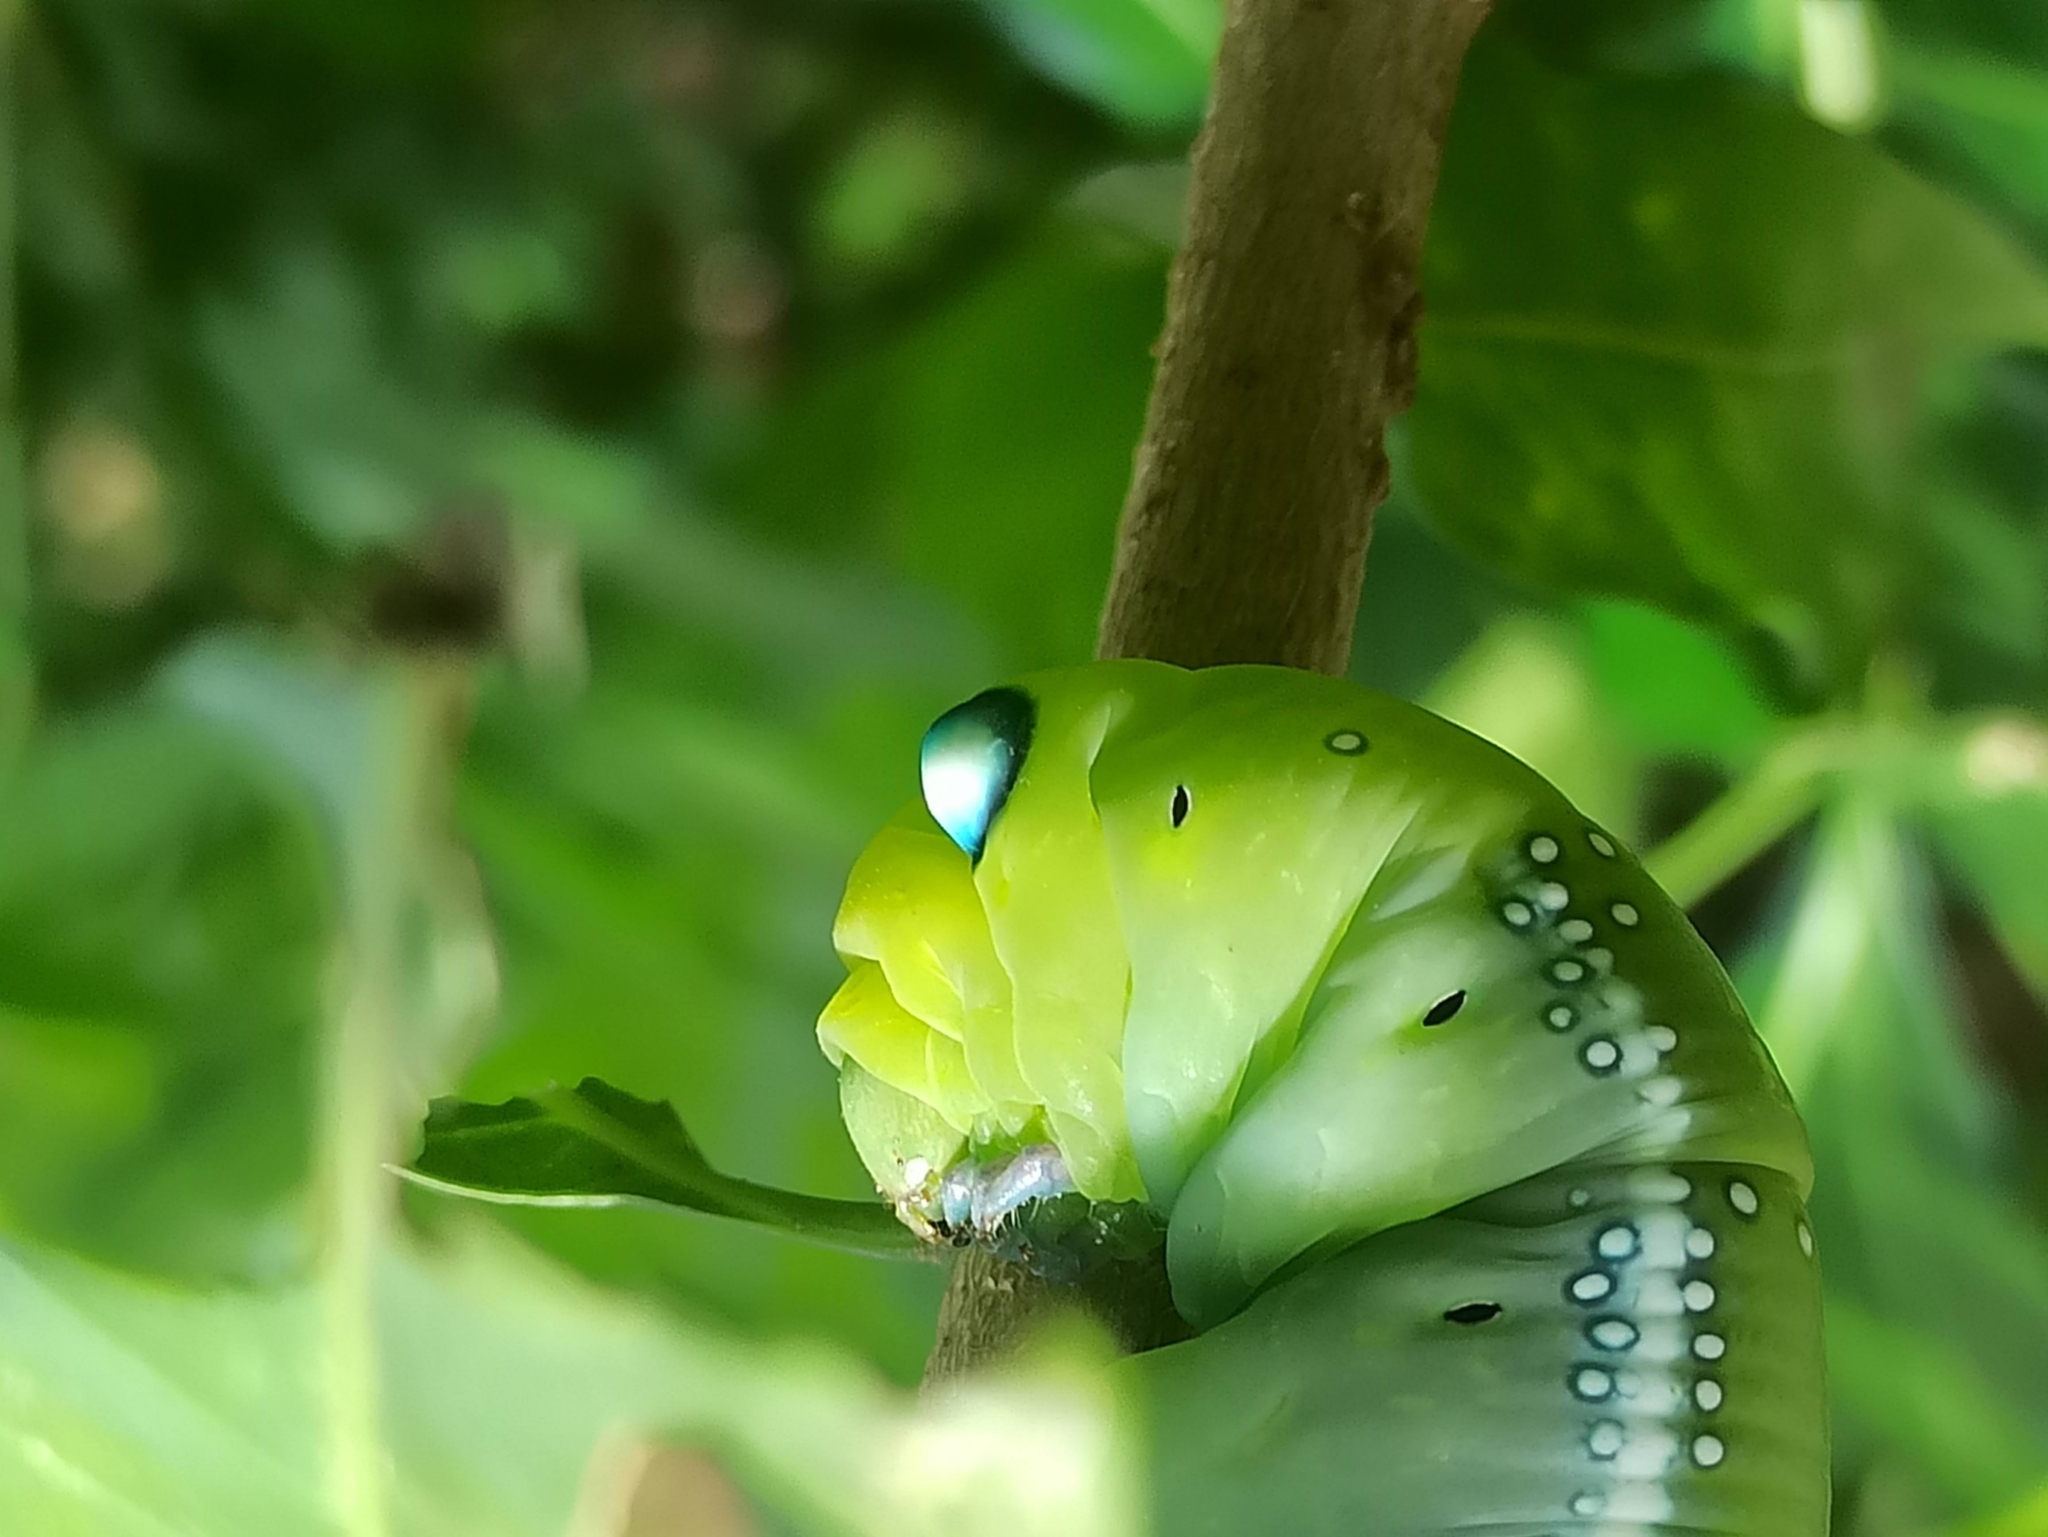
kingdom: Animalia
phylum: Arthropoda
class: Insecta
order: Lepidoptera
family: Sphingidae
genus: Daphnis
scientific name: Daphnis nerii
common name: Oleander hawk-moth
